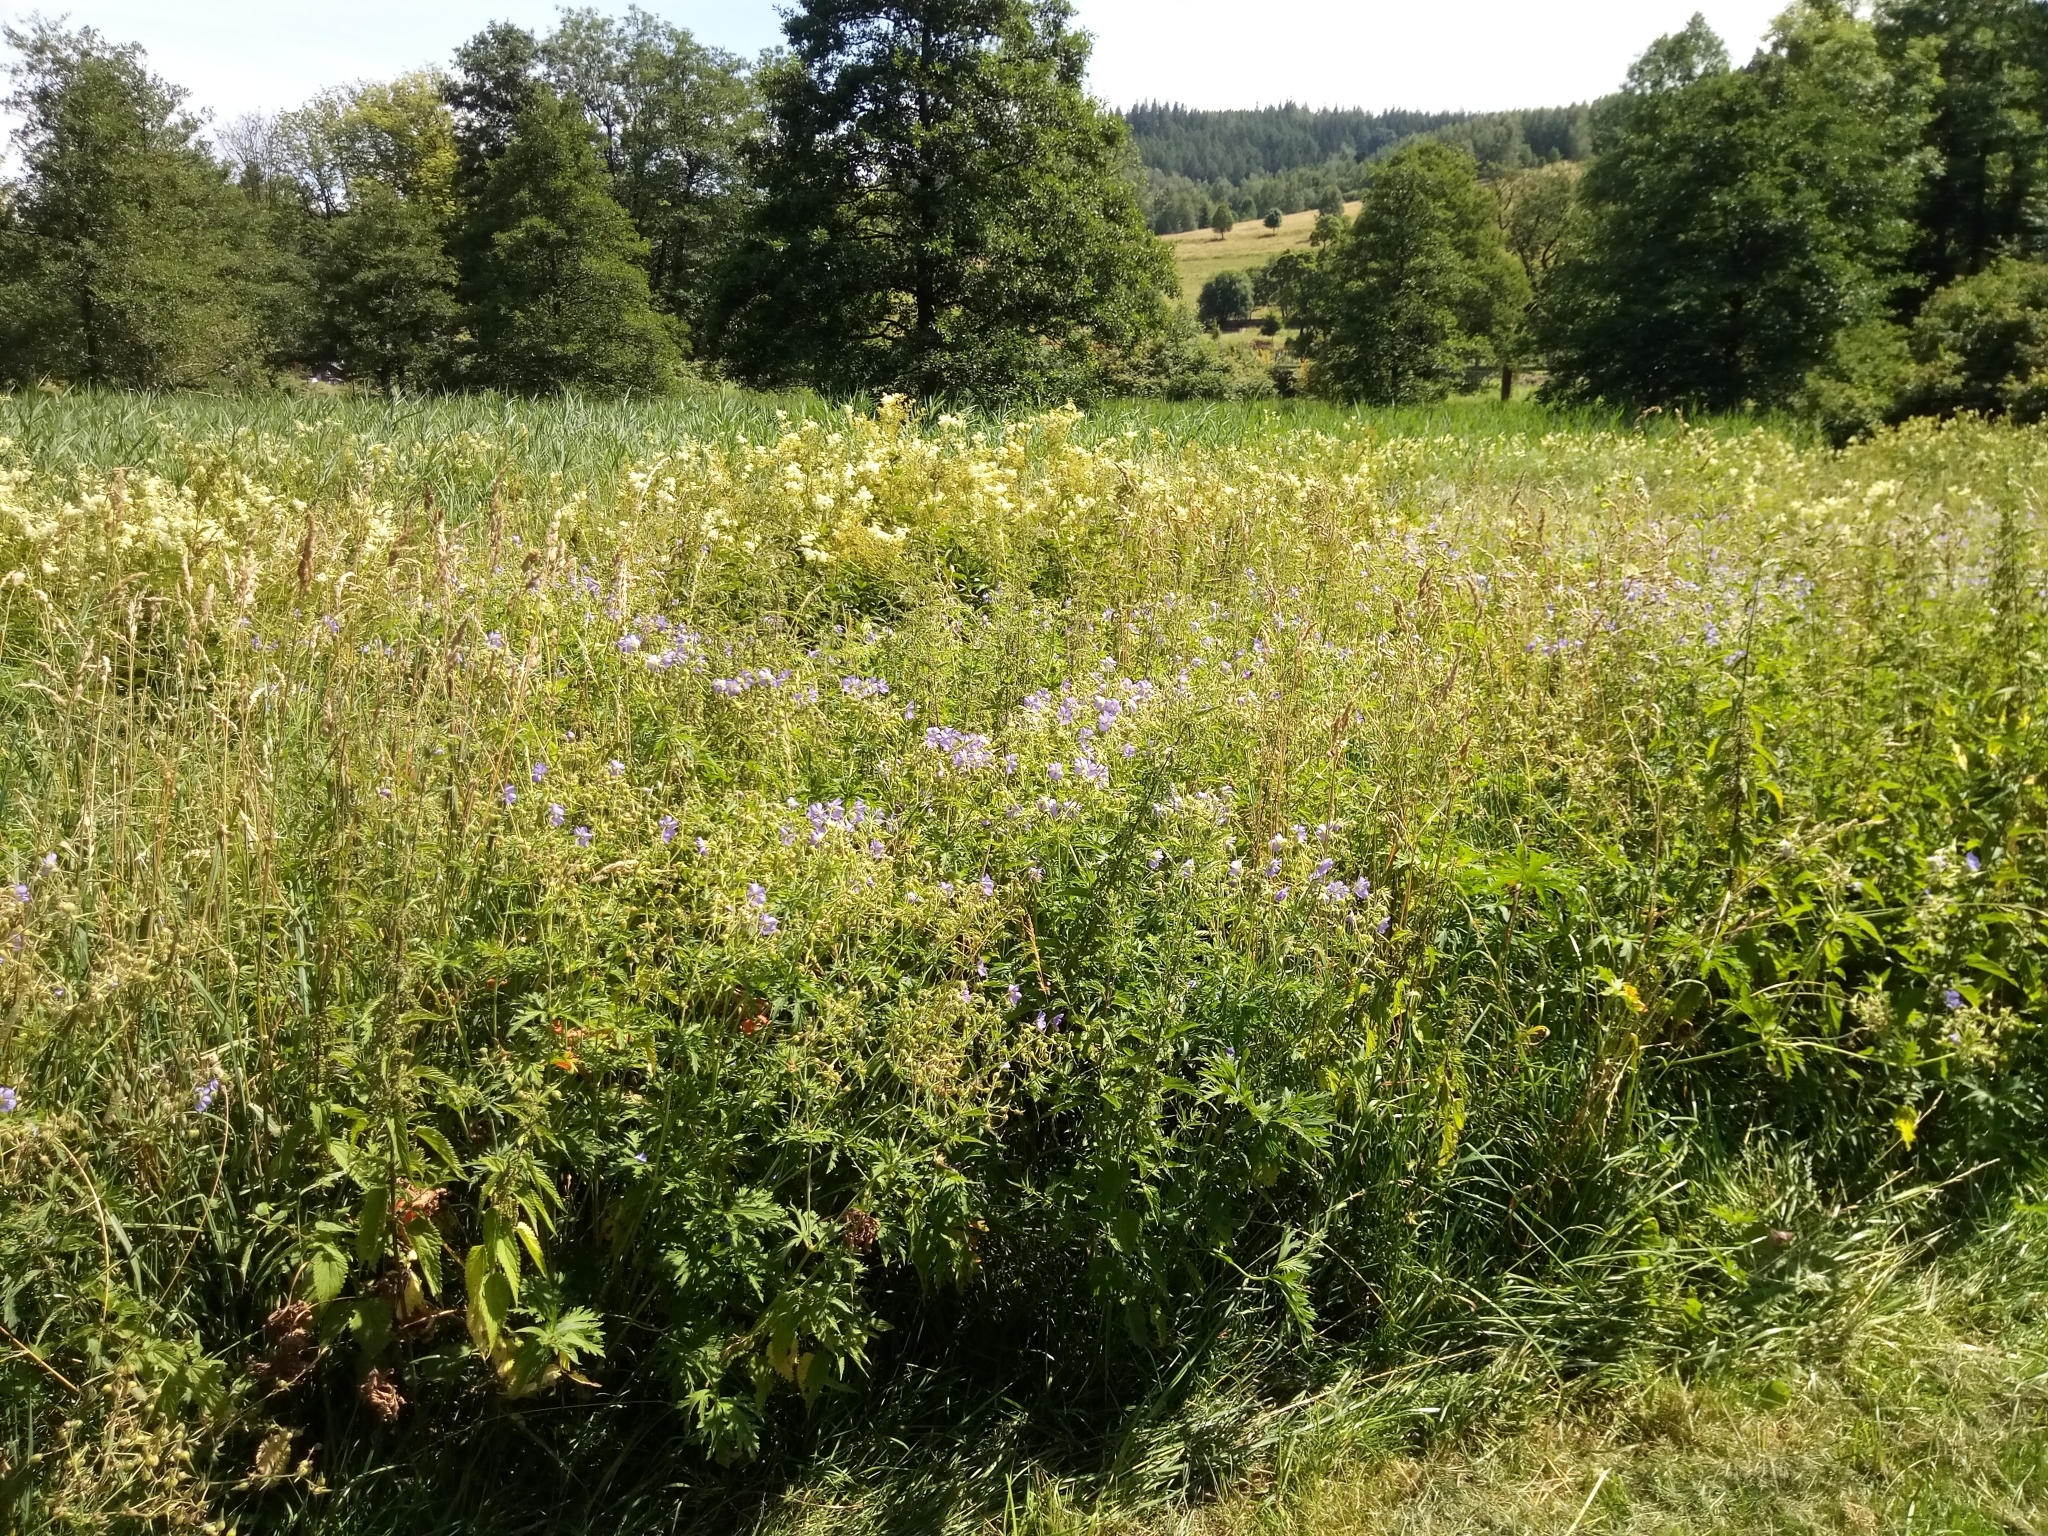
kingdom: Plantae
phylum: Tracheophyta
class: Magnoliopsida
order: Rosales
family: Rosaceae
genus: Filipendula
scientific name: Filipendula ulmaria
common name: Meadowsweet
